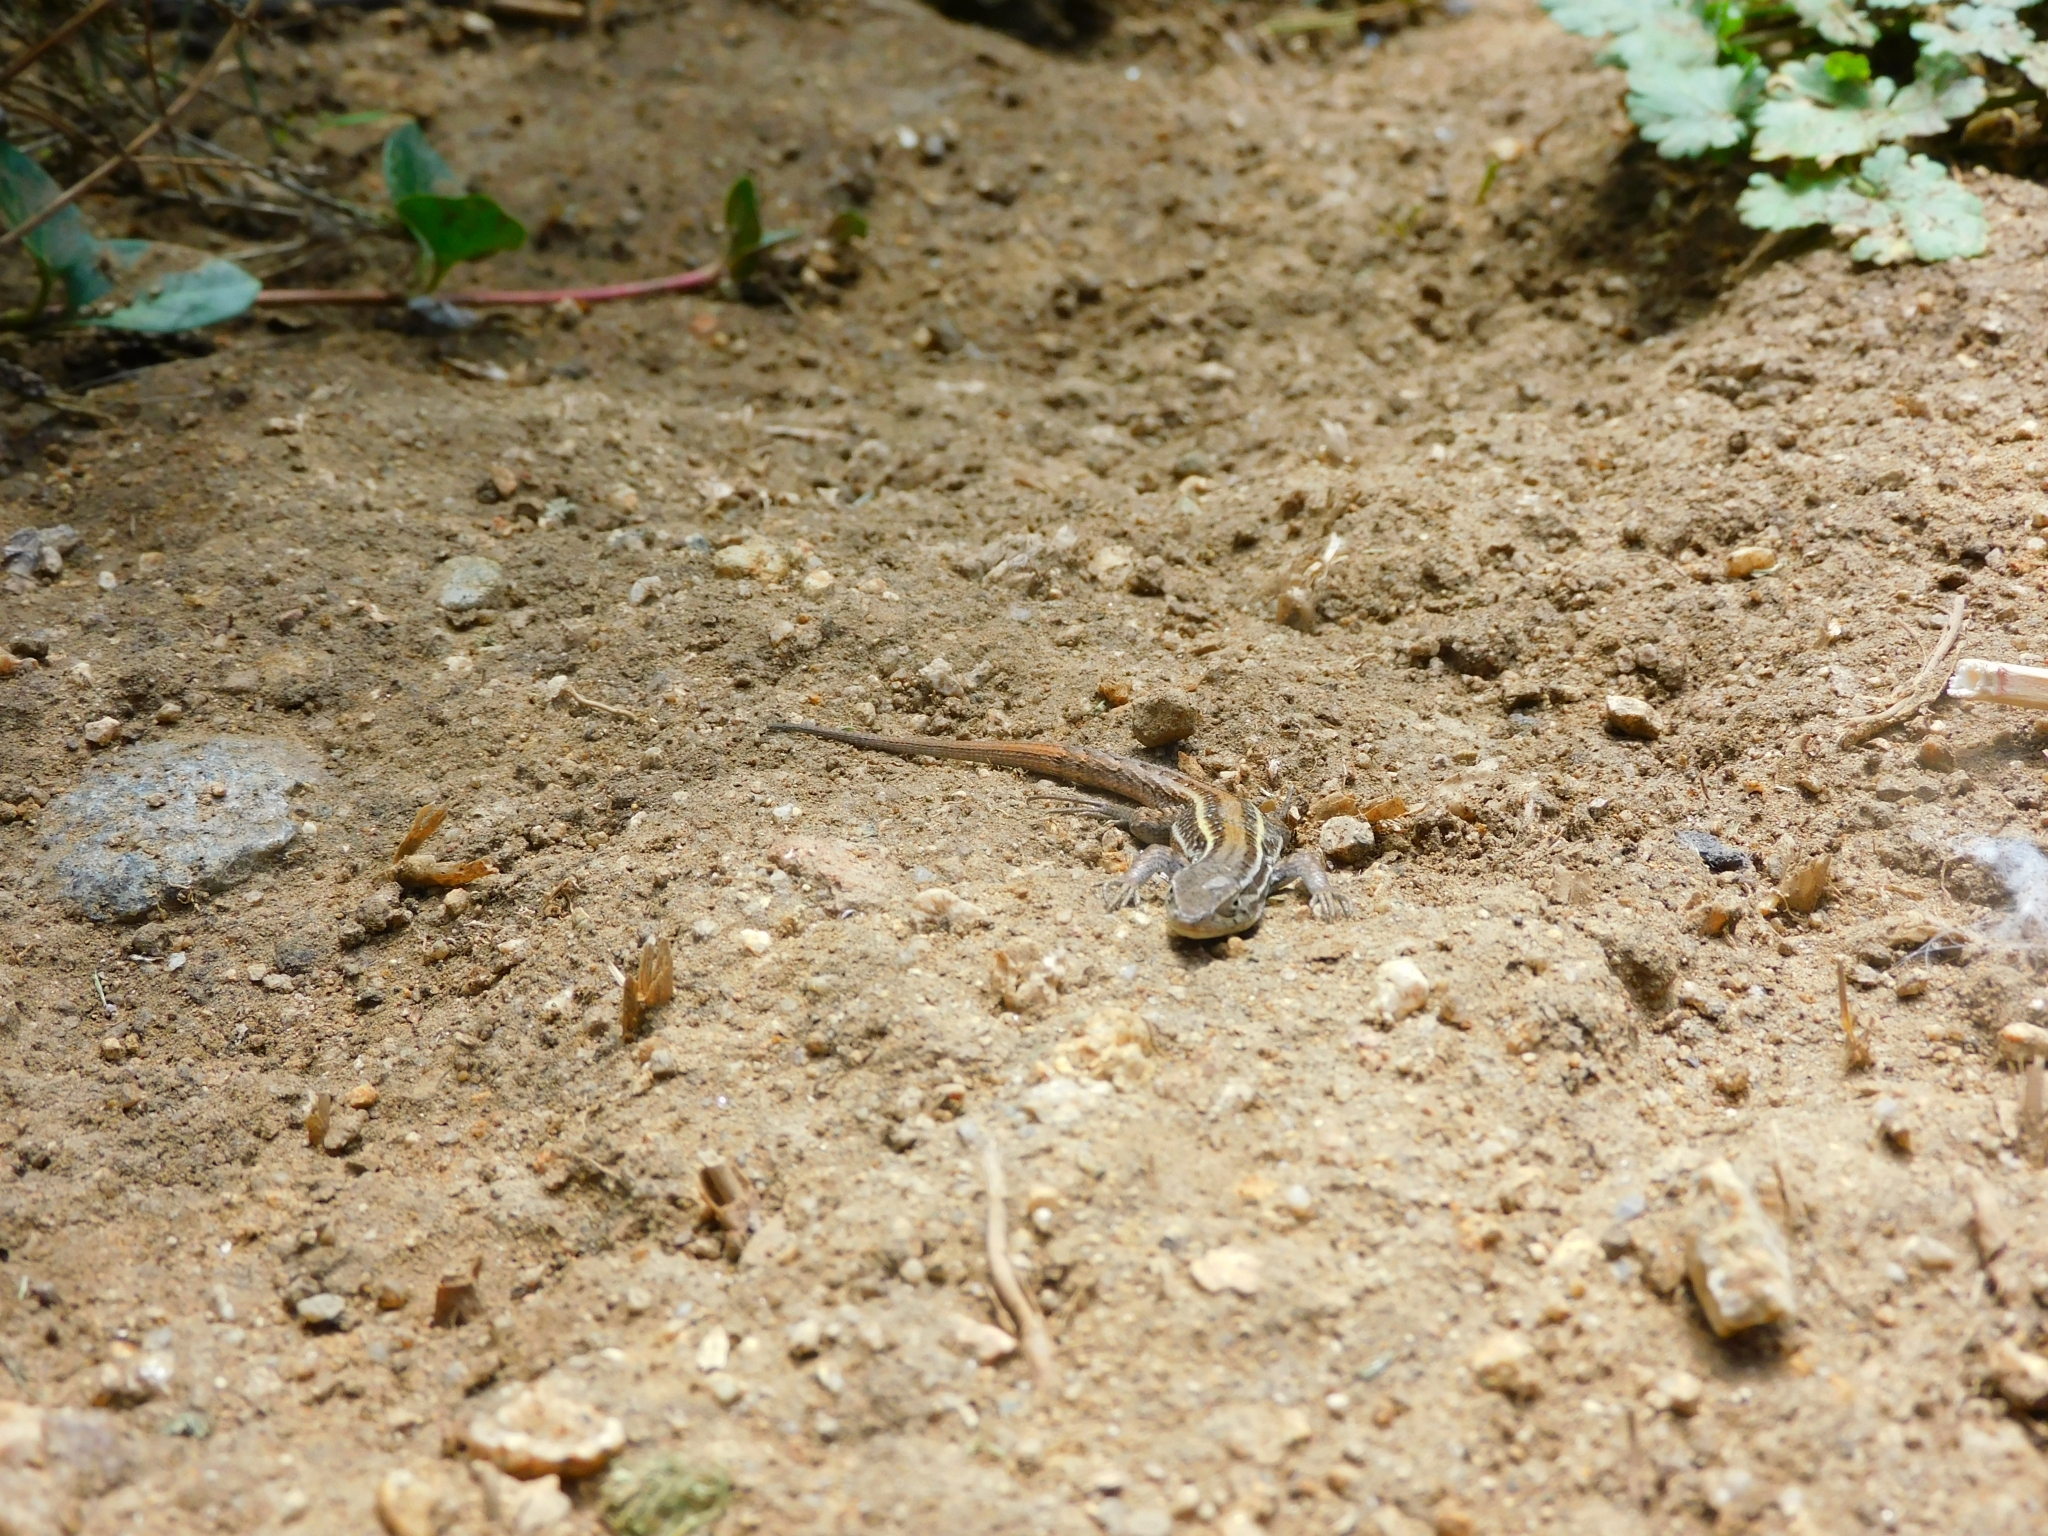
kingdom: Animalia
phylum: Chordata
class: Squamata
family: Liolaemidae
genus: Liolaemus
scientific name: Liolaemus lemniscatus
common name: Wreath tree iguana
